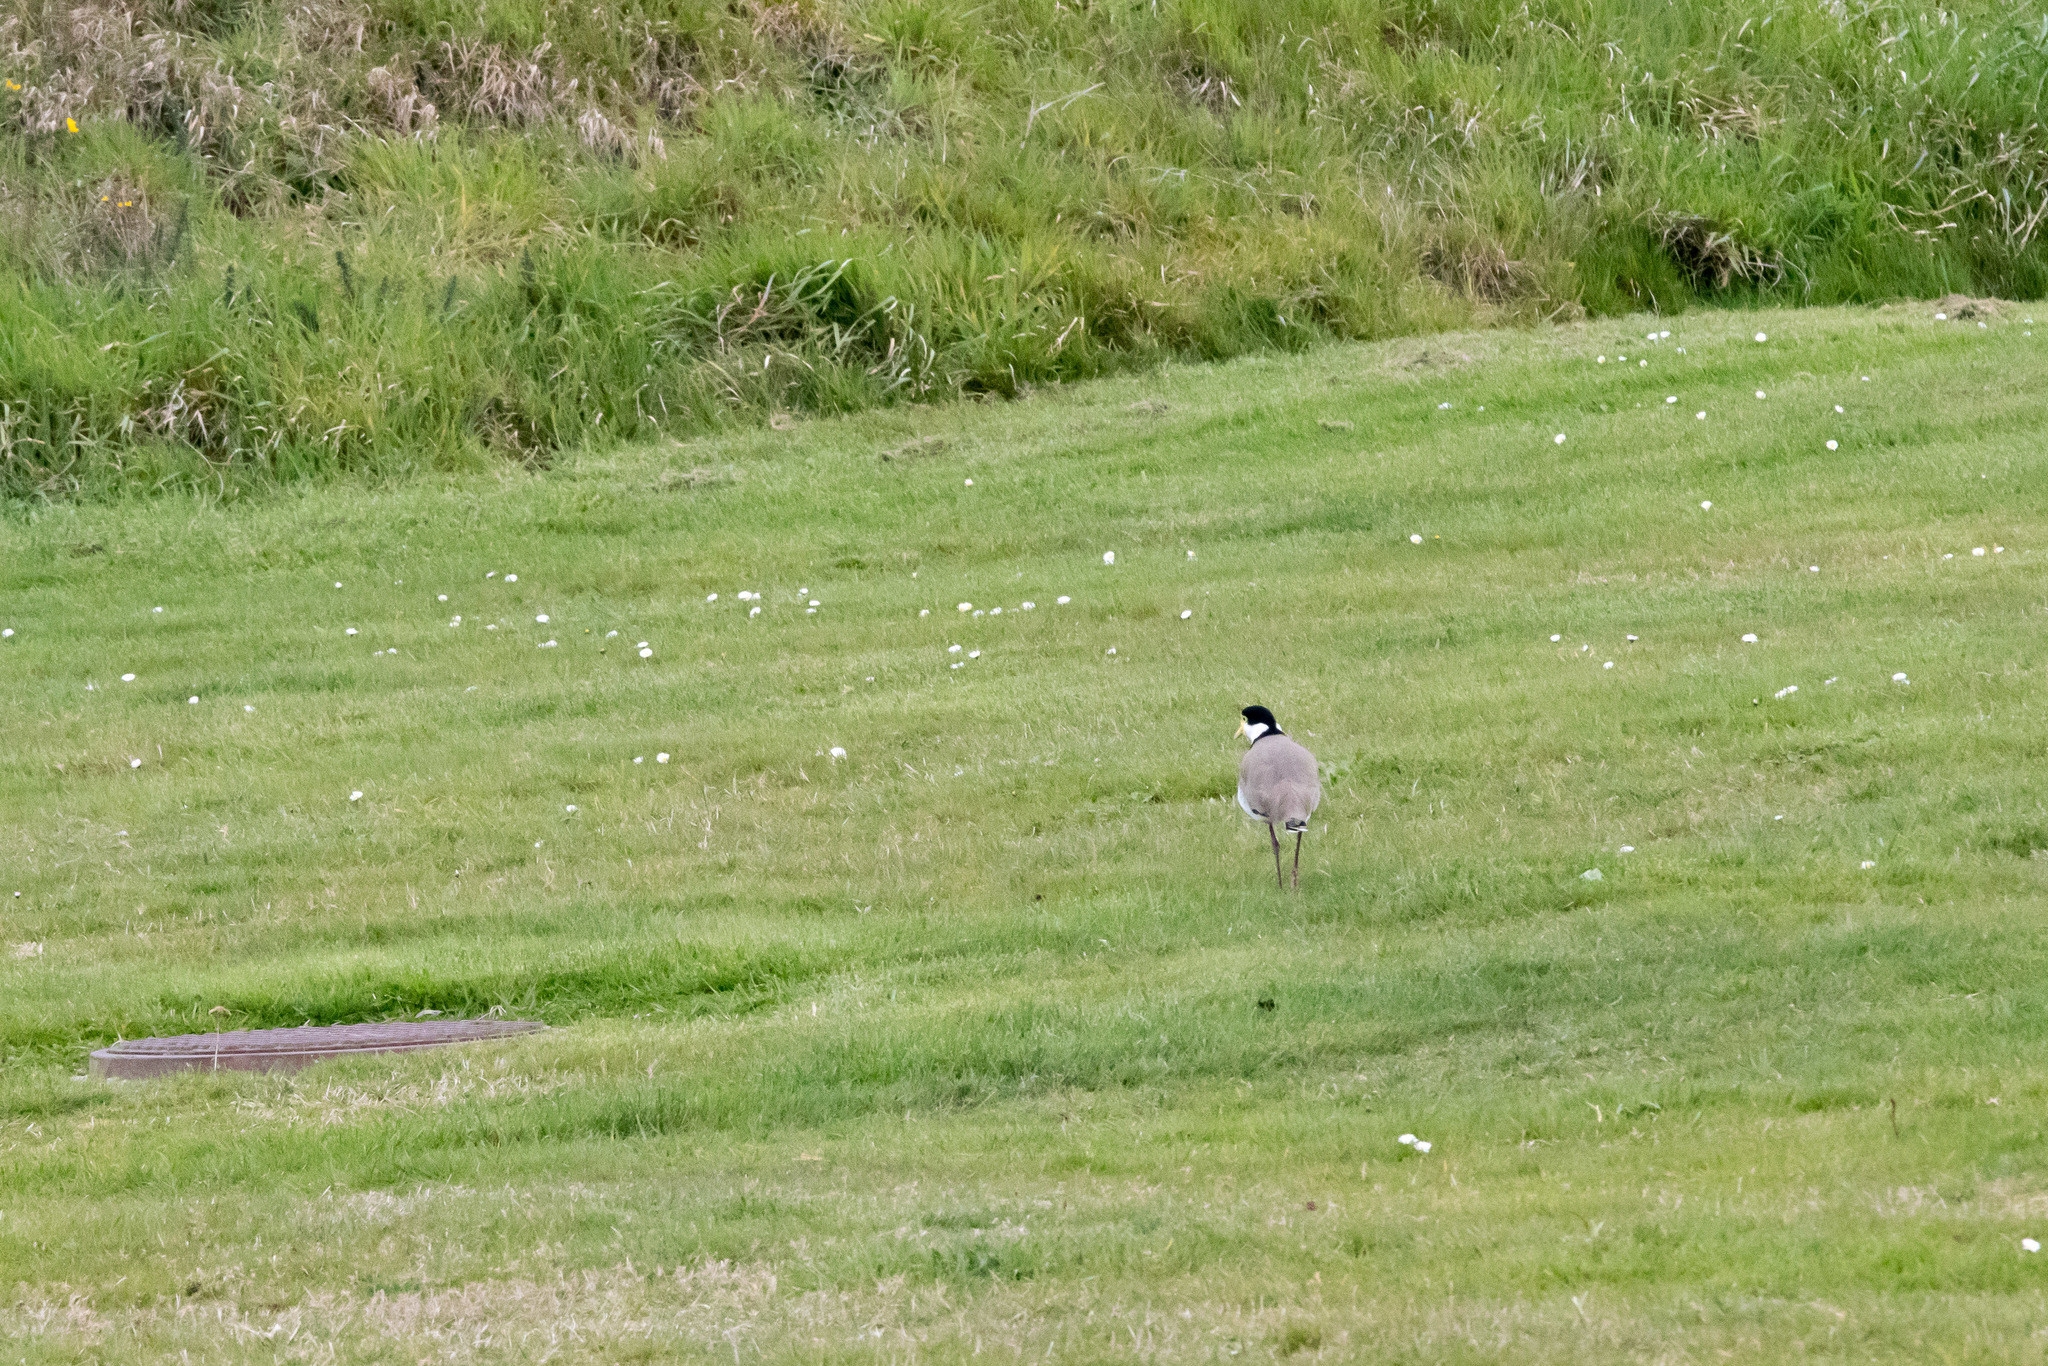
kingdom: Animalia
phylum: Chordata
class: Aves
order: Charadriiformes
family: Charadriidae
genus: Vanellus
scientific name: Vanellus miles
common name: Masked lapwing
